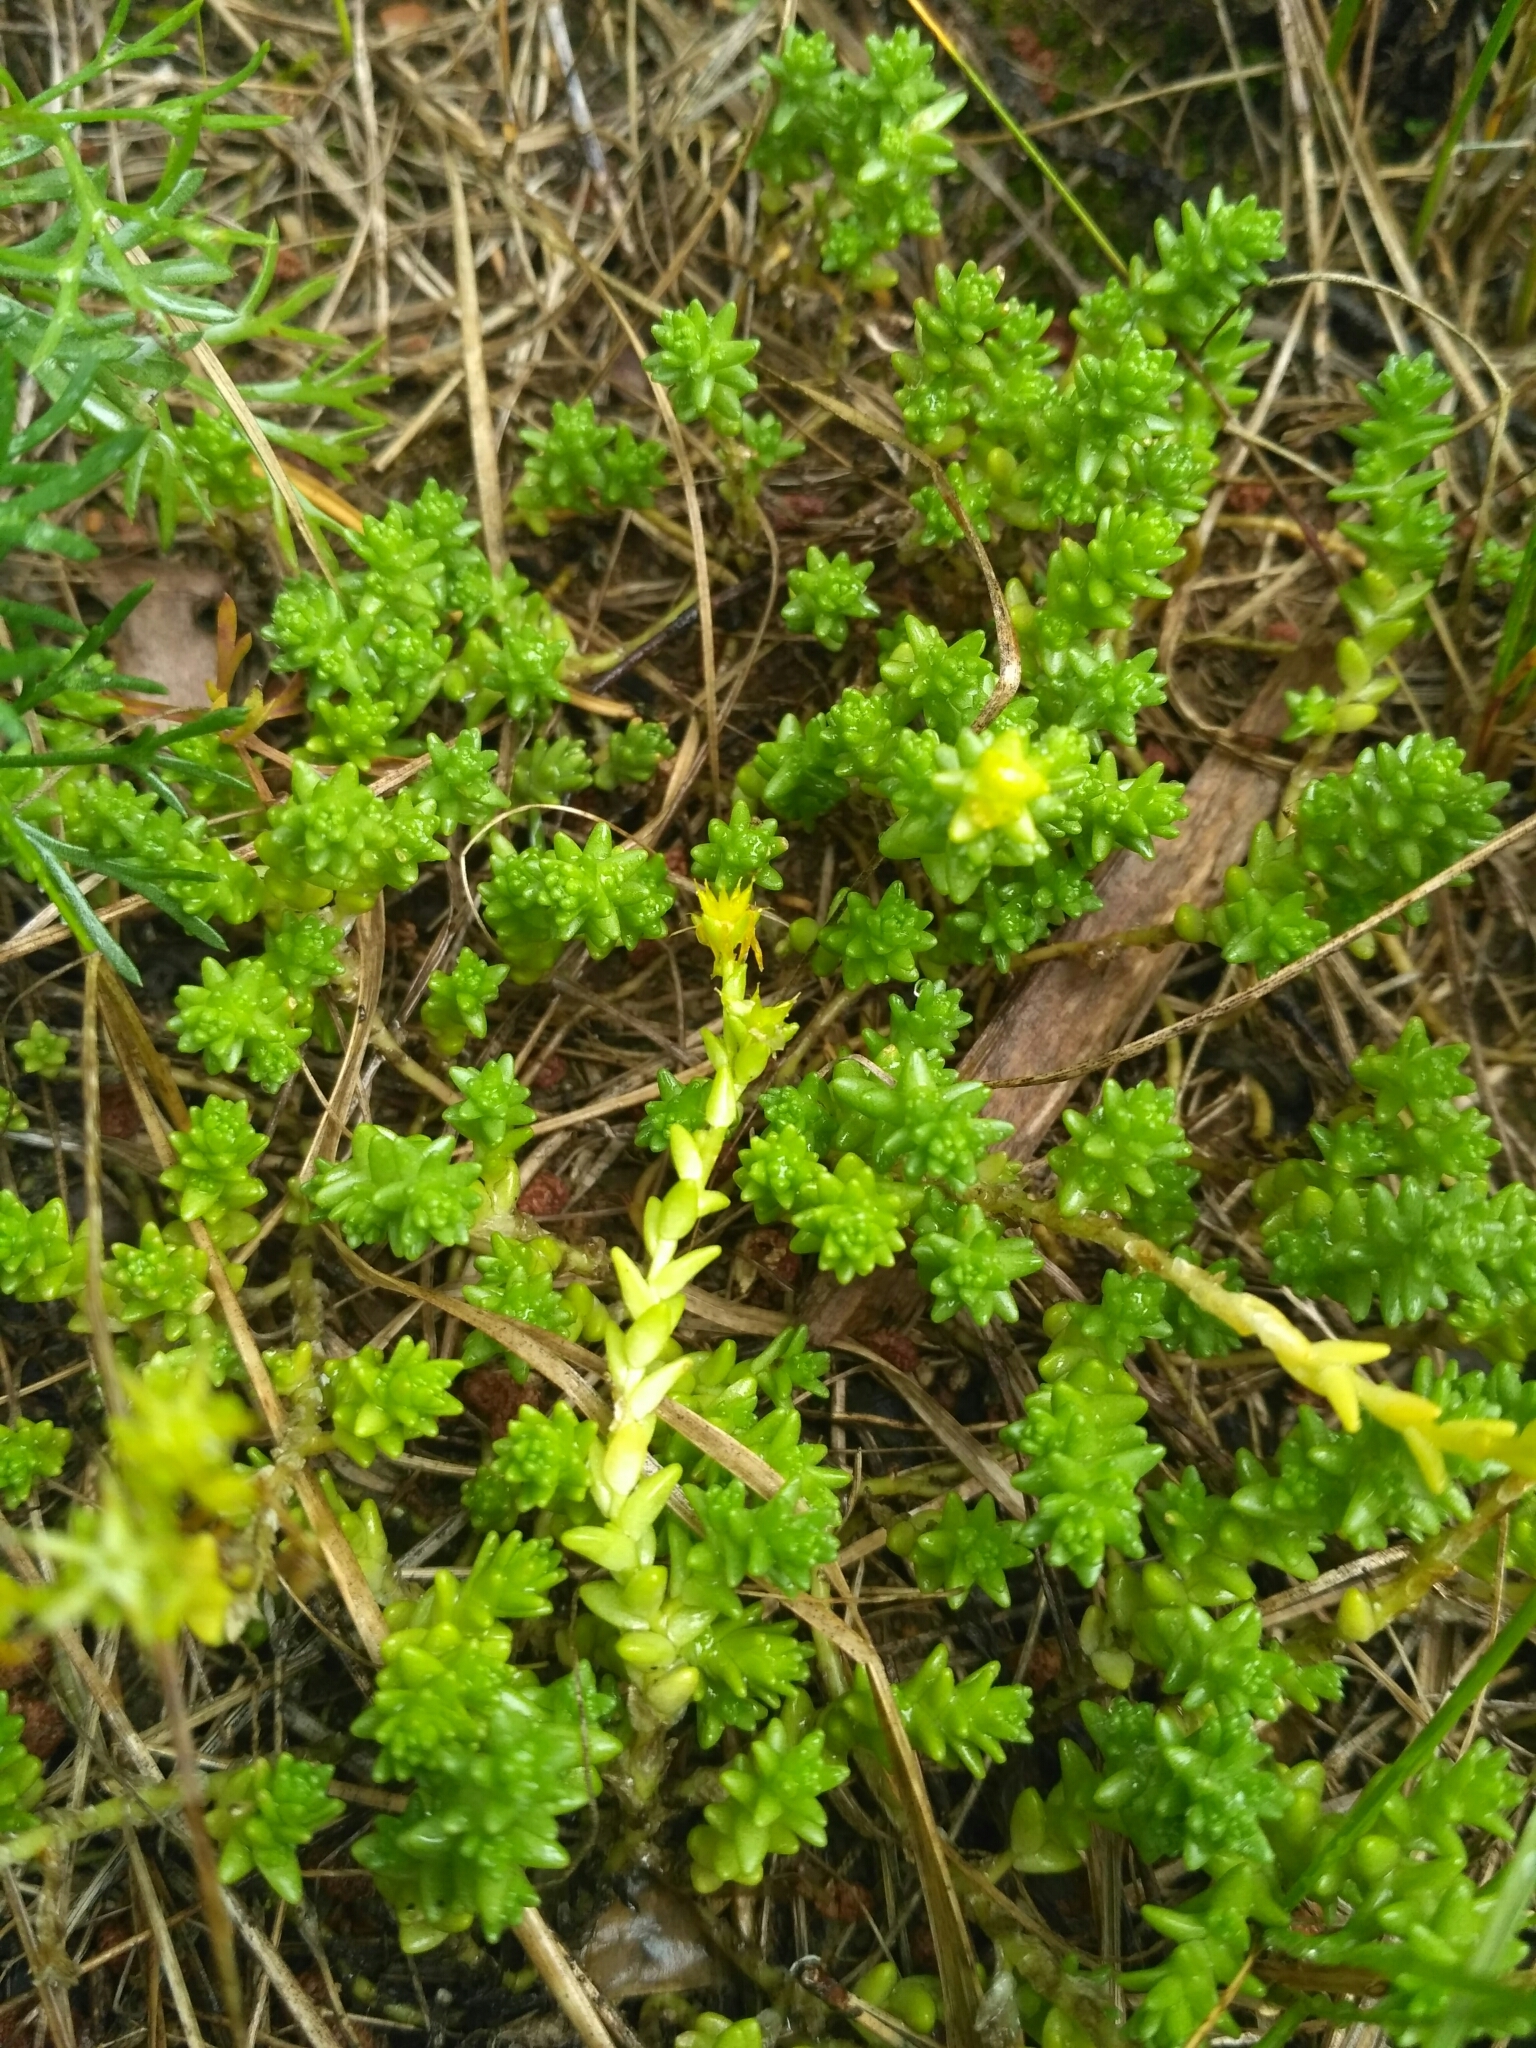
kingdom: Plantae
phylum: Tracheophyta
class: Magnoliopsida
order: Saxifragales
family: Crassulaceae
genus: Sedum
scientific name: Sedum acre
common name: Biting stonecrop
